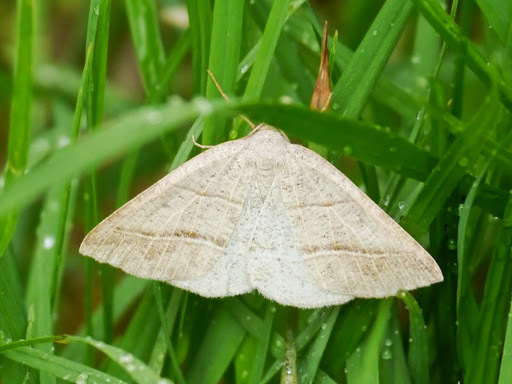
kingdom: Animalia
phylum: Arthropoda
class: Insecta
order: Lepidoptera
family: Pterophoridae
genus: Pterophorus
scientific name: Pterophorus Petrophora subaequaria
